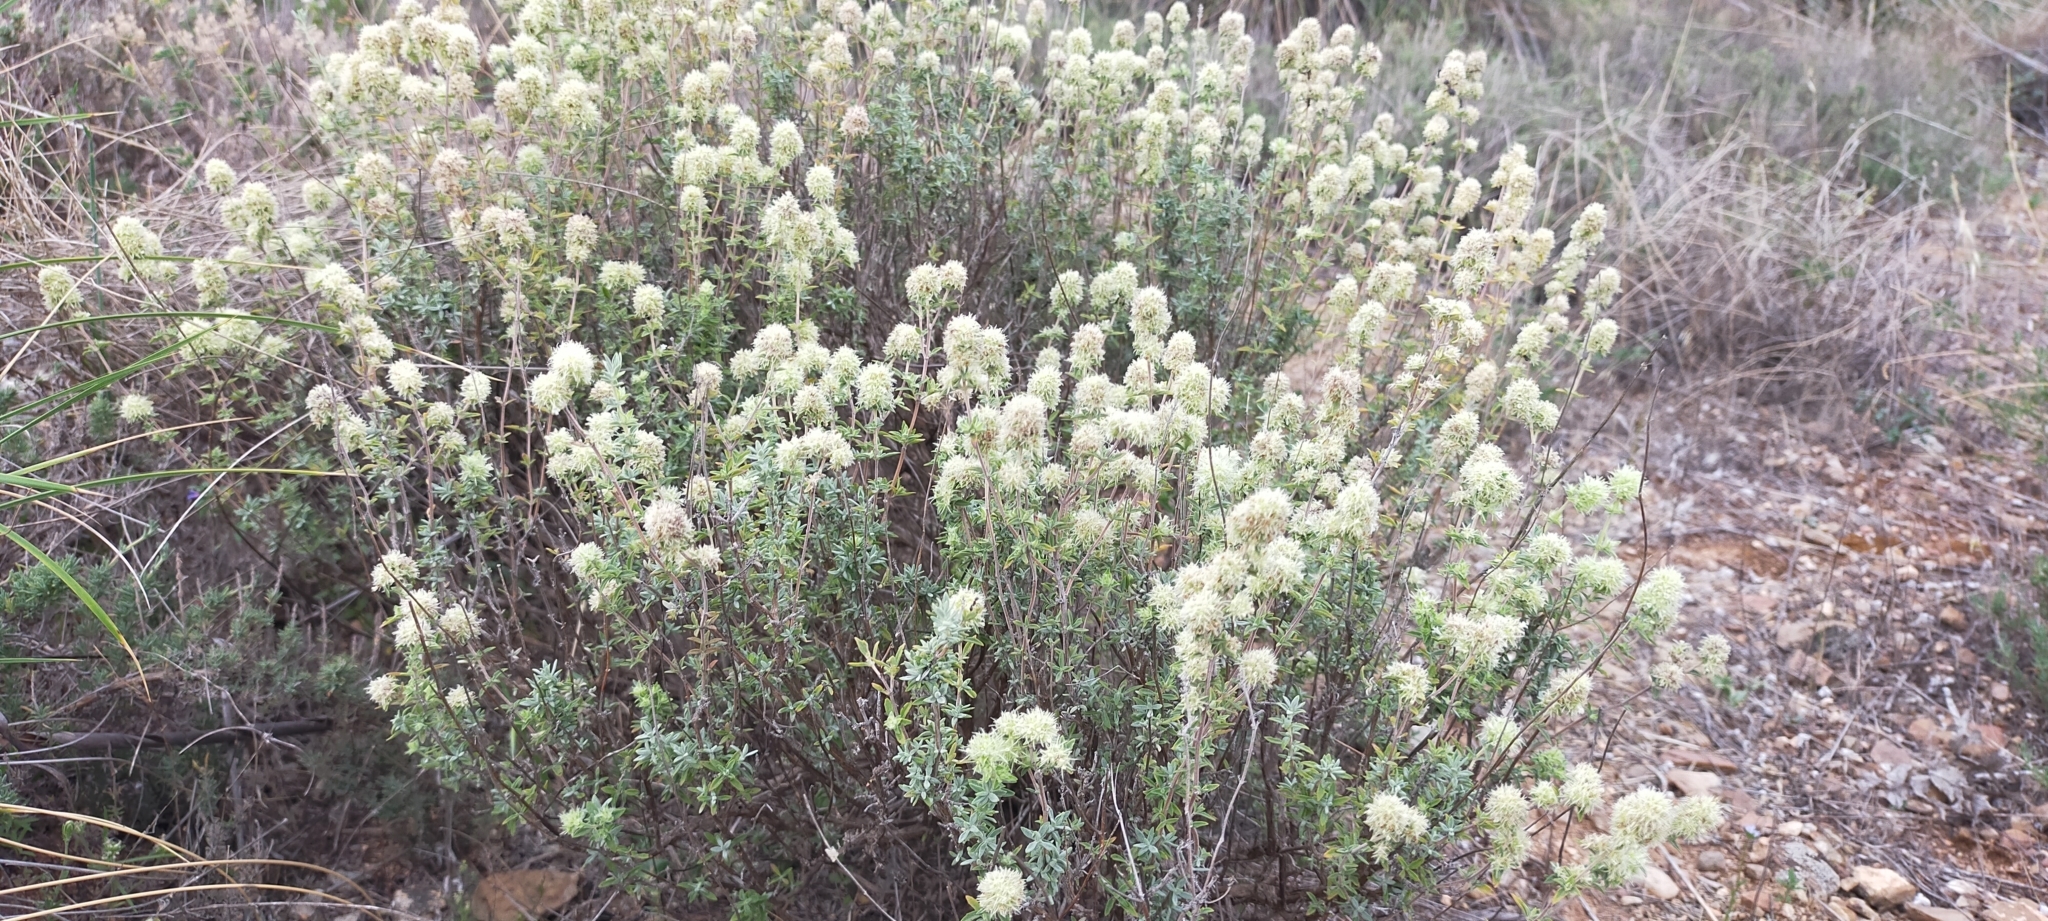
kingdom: Plantae
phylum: Tracheophyta
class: Magnoliopsida
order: Lamiales
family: Lamiaceae
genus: Thymus
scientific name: Thymus mastichina
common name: Mastic thyme
